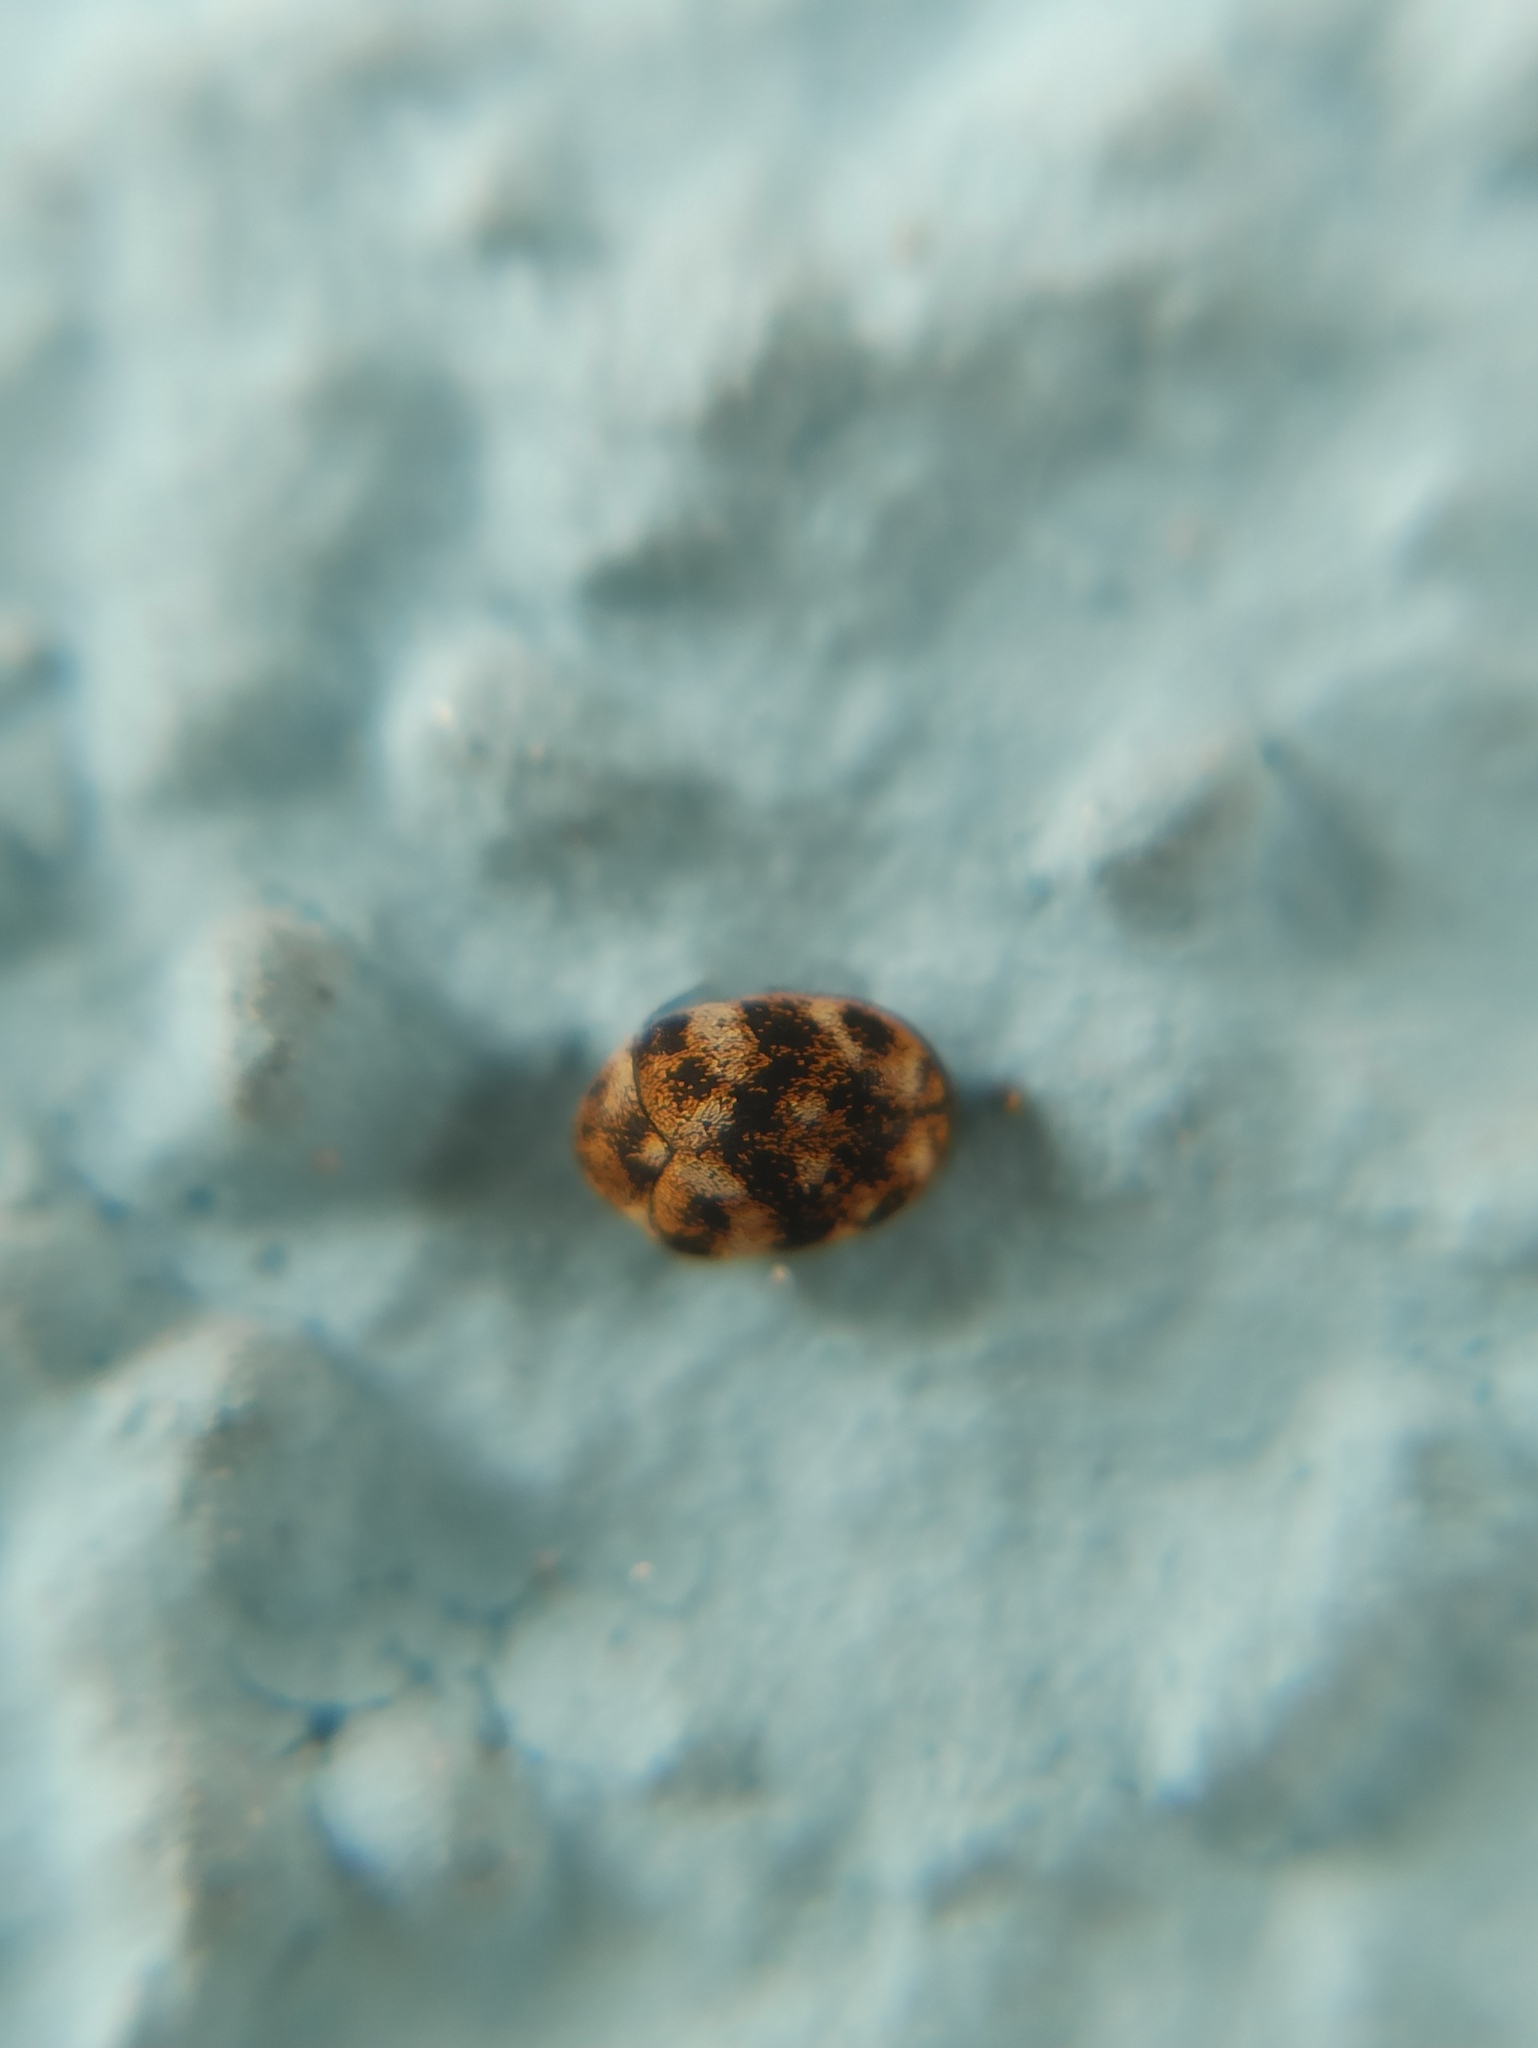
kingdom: Animalia
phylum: Arthropoda
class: Insecta
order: Coleoptera
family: Dermestidae
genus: Anthrenus
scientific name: Anthrenus verbasci
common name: Varied carpet beetle
